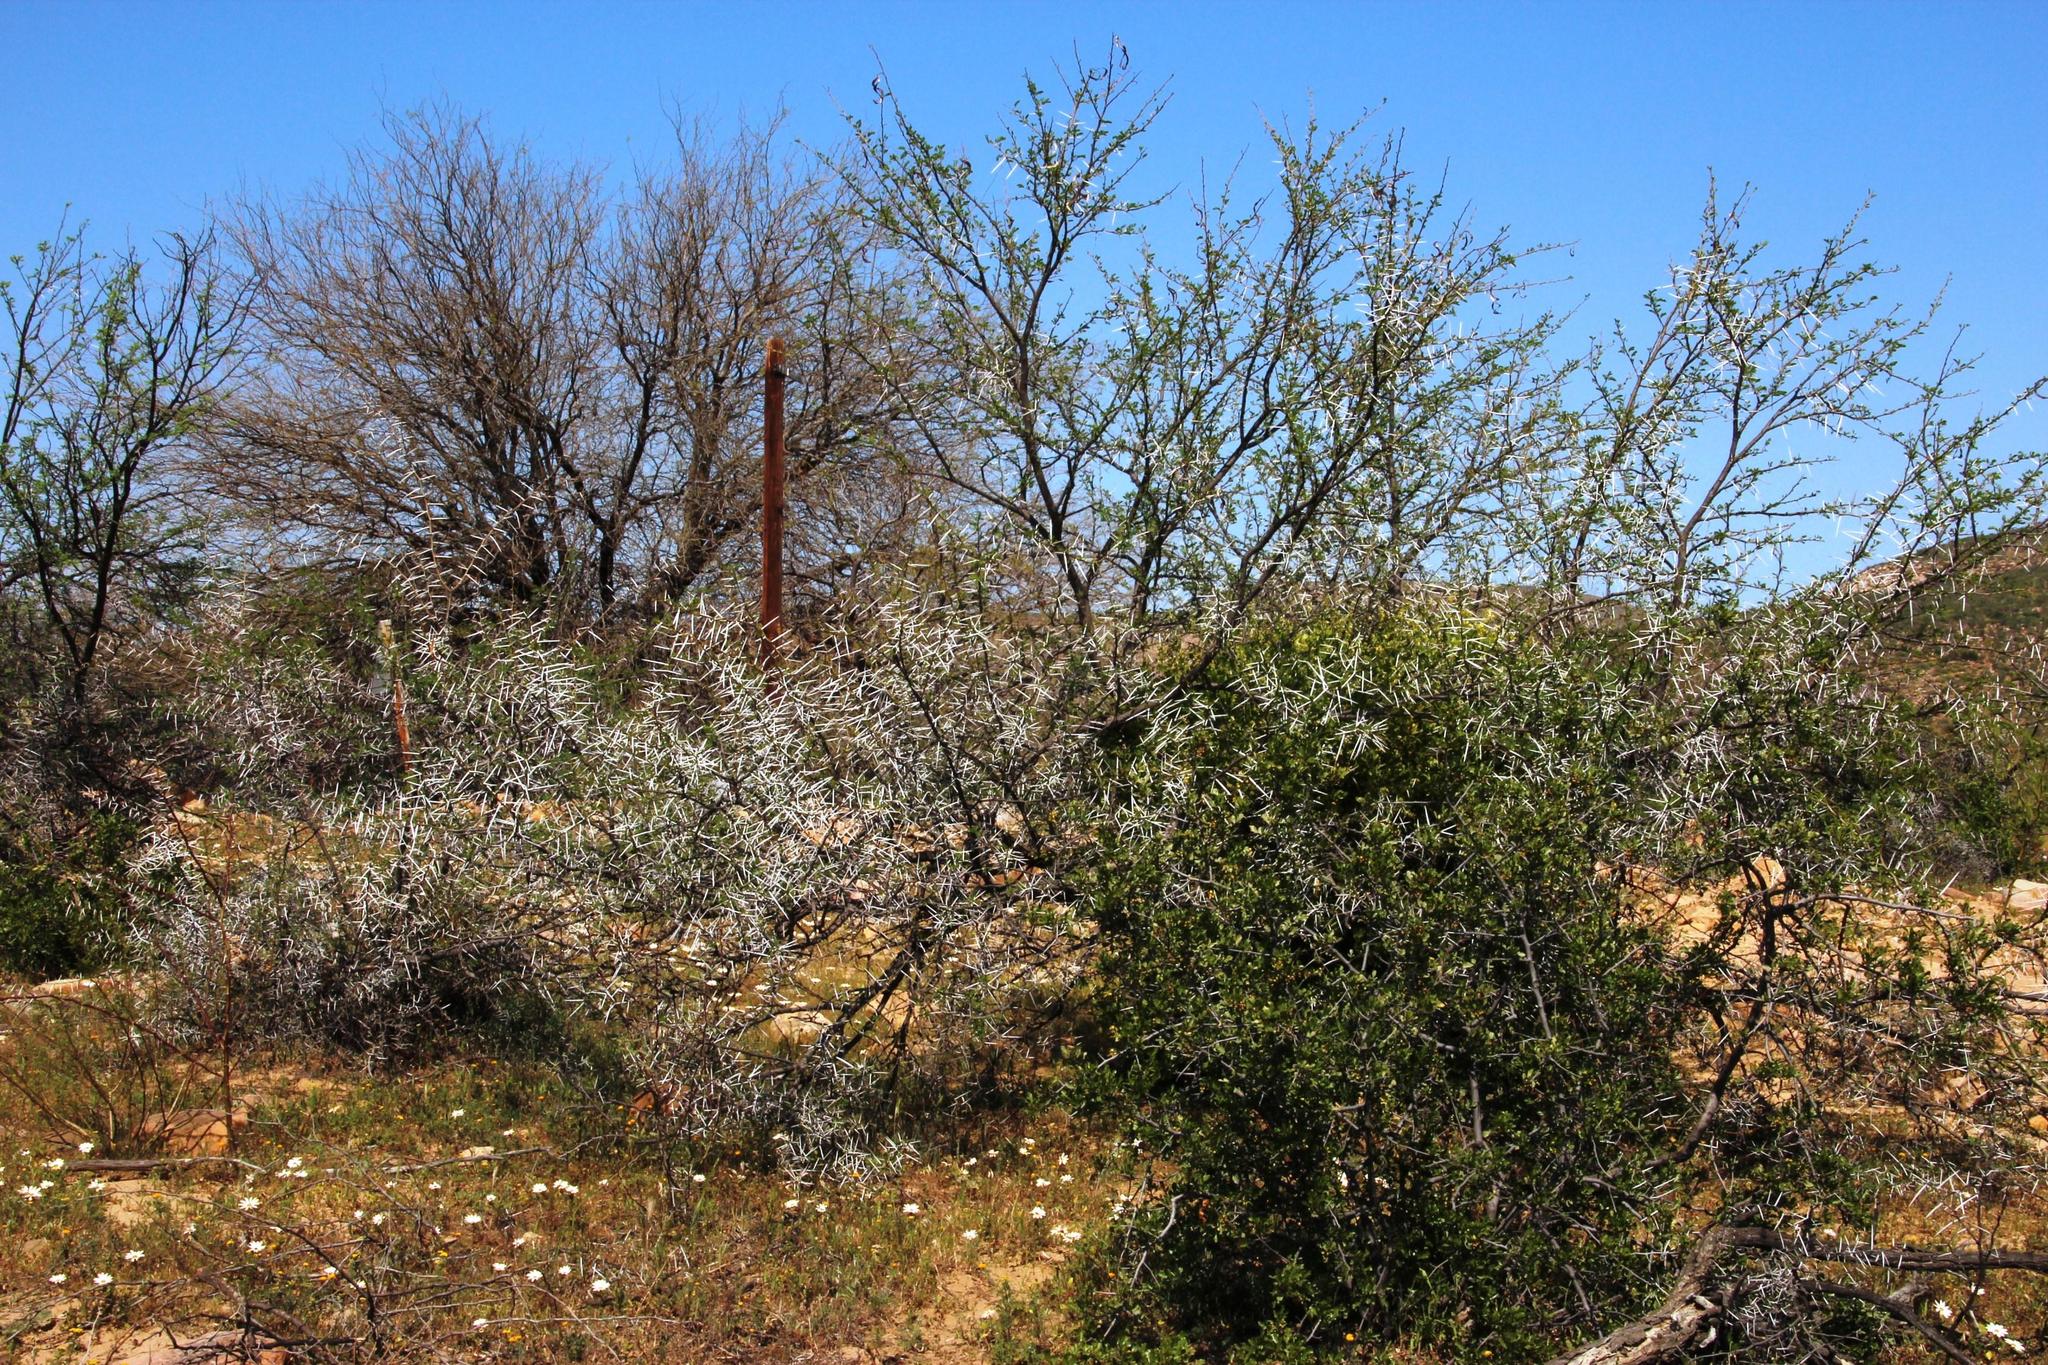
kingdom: Plantae
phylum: Tracheophyta
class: Magnoliopsida
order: Fabales
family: Fabaceae
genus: Vachellia
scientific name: Vachellia karroo
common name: Sweet thorn
